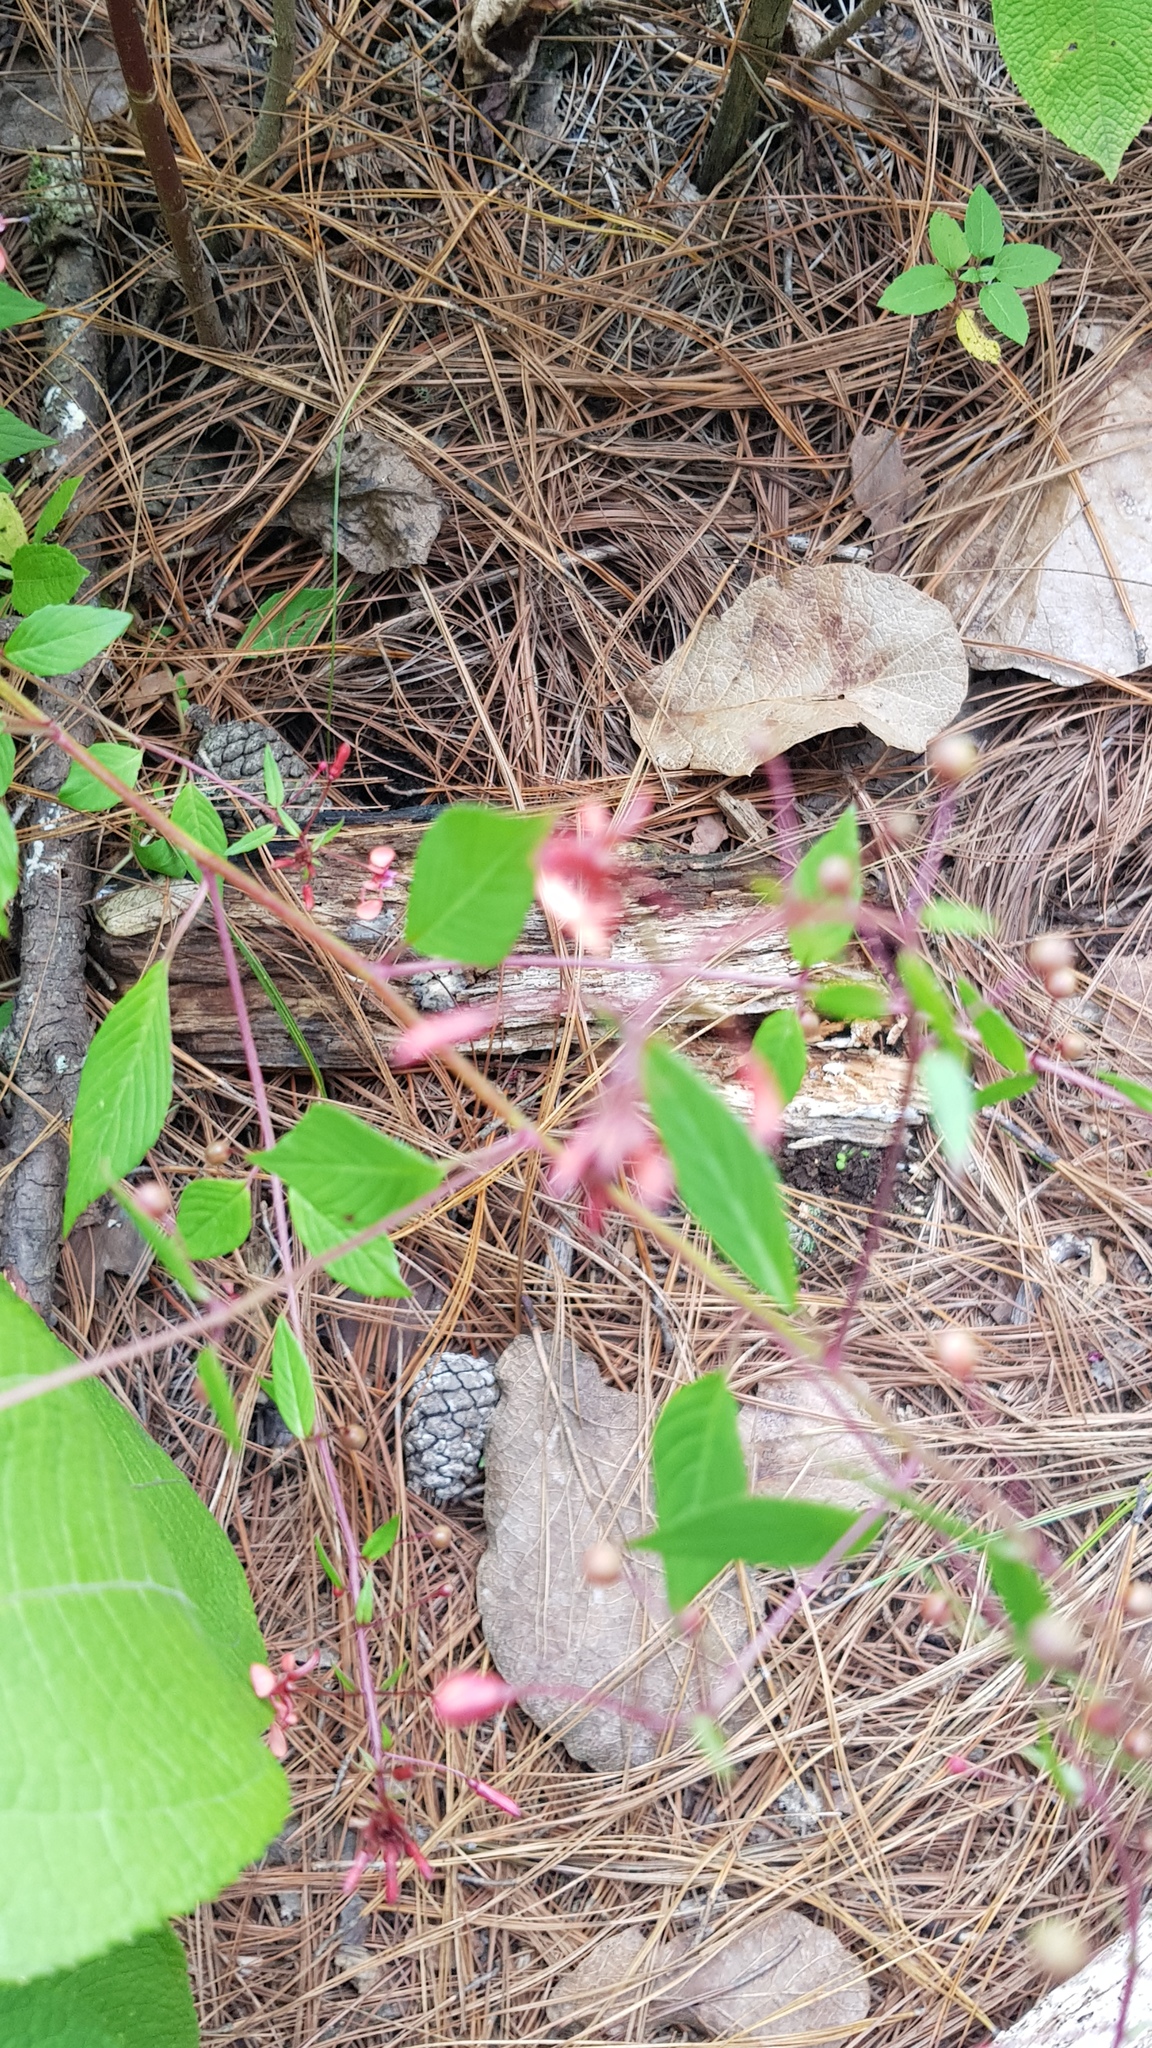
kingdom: Plantae
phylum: Tracheophyta
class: Magnoliopsida
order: Myrtales
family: Onagraceae
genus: Lopezia
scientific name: Lopezia racemosa
